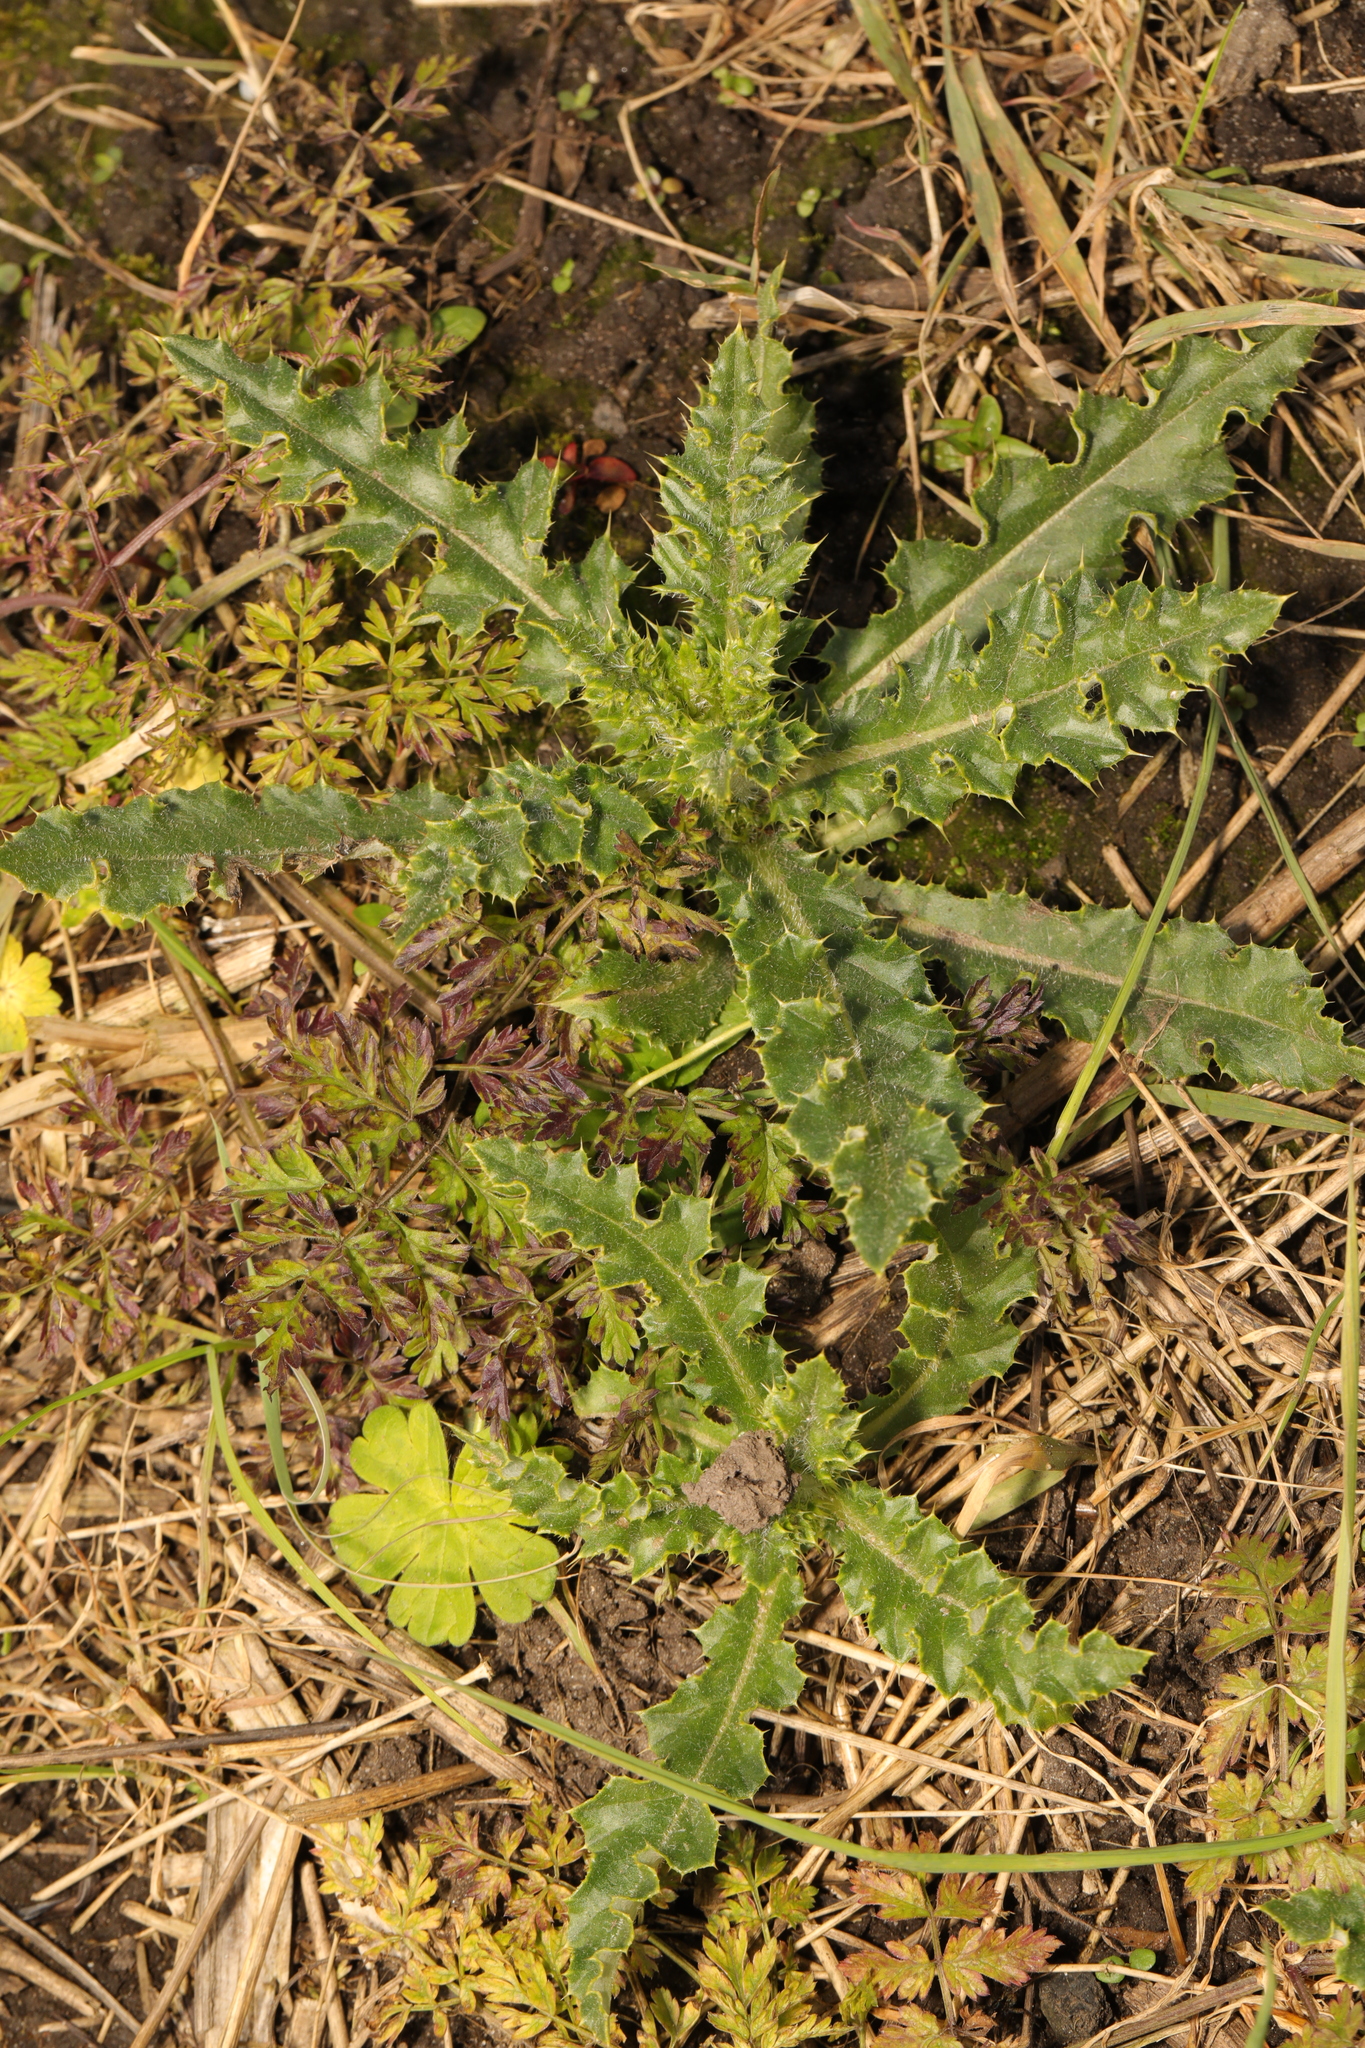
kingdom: Plantae
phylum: Tracheophyta
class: Magnoliopsida
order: Asterales
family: Asteraceae
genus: Cirsium
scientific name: Cirsium arvense
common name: Creeping thistle
